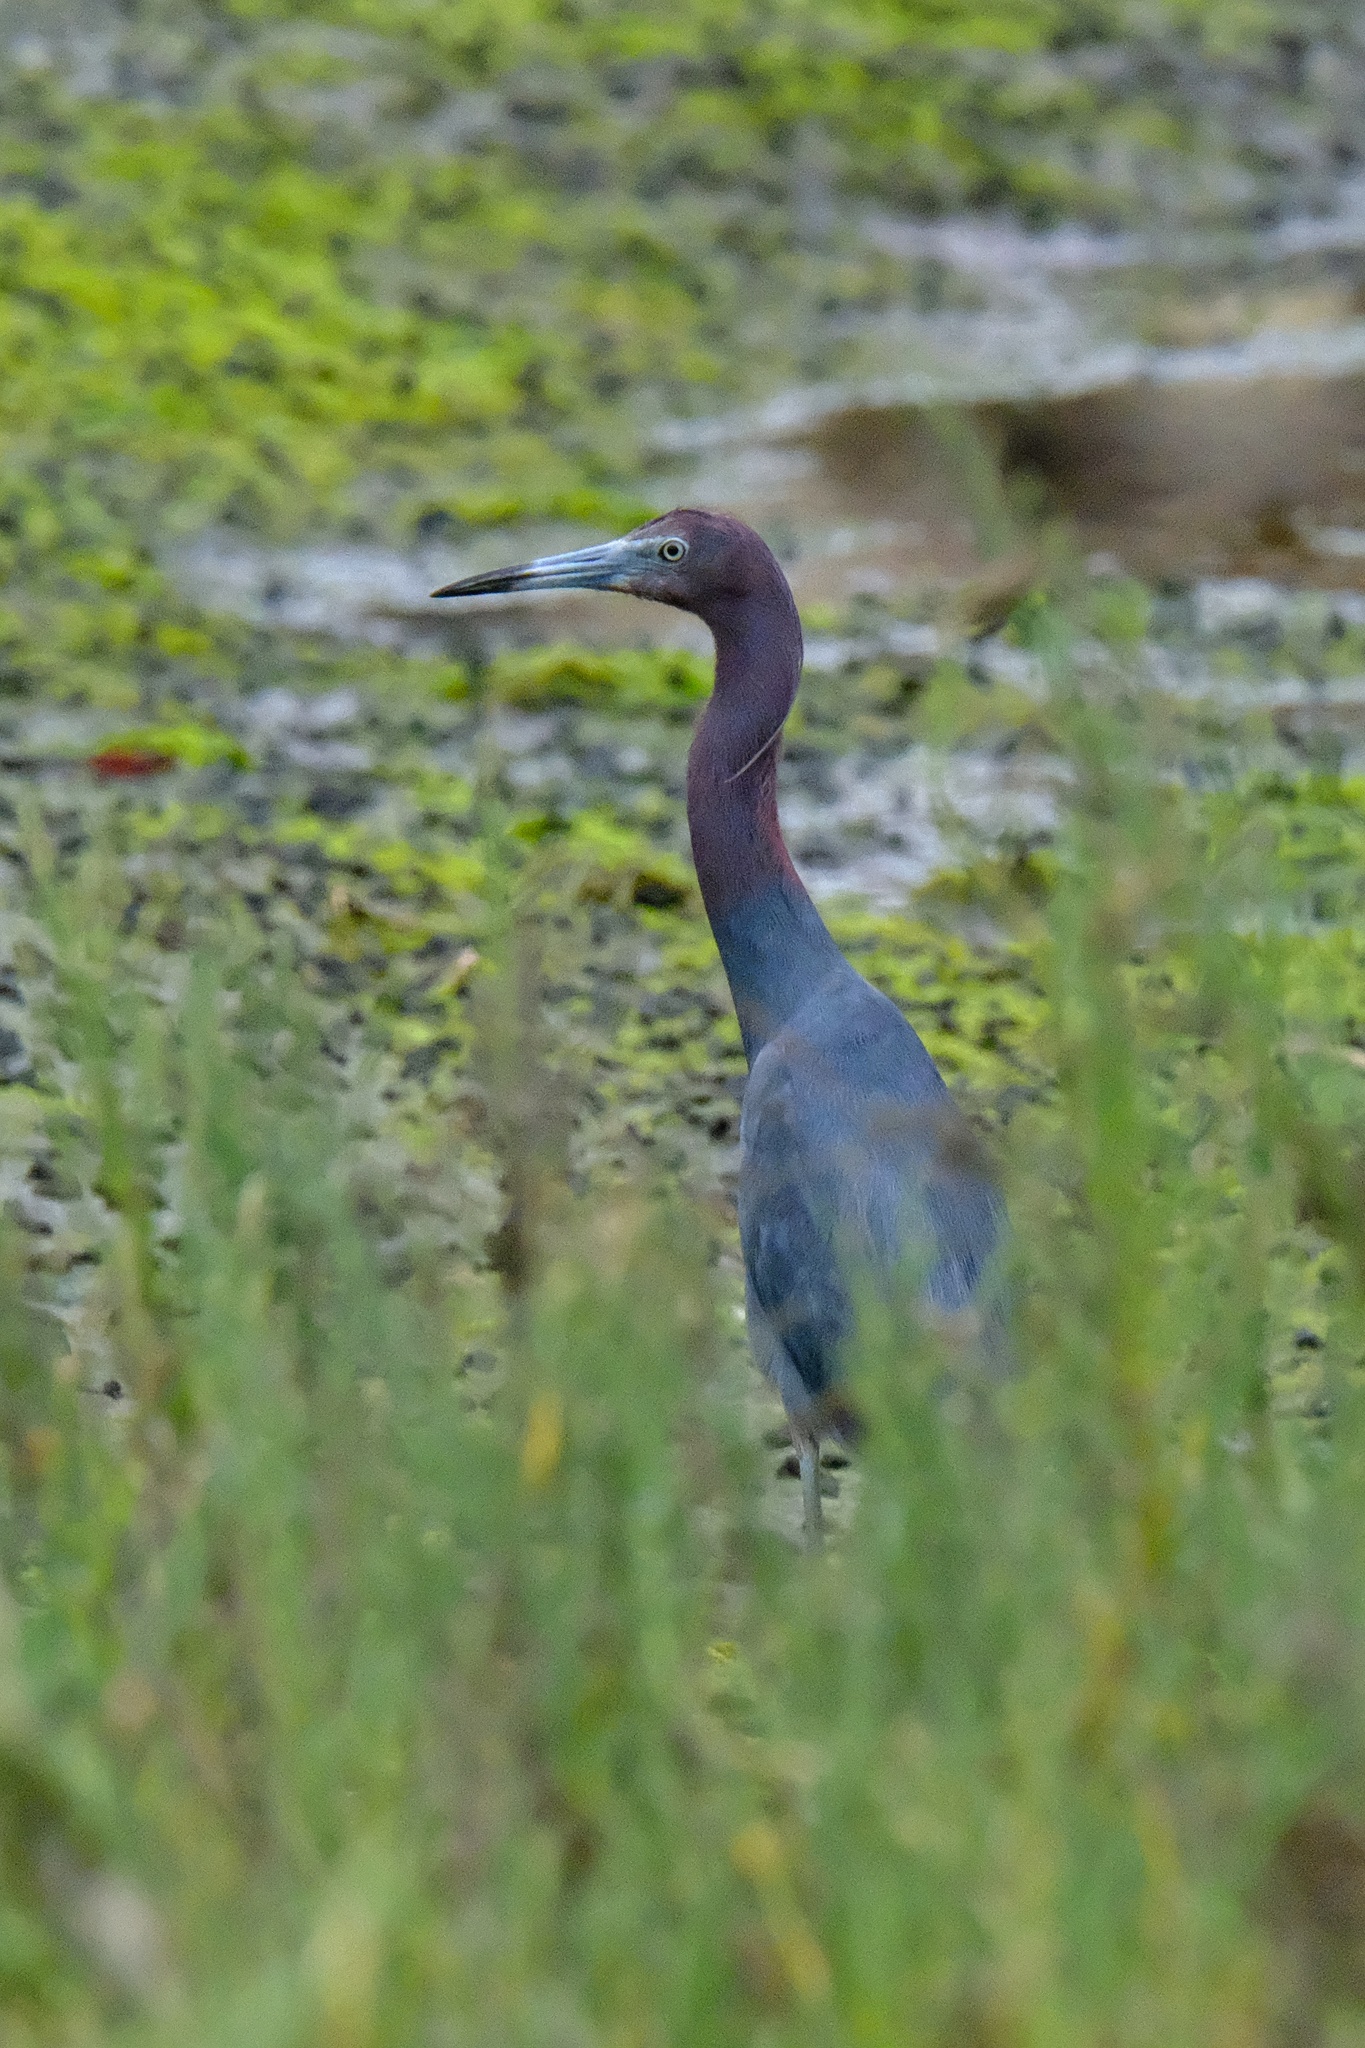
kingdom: Animalia
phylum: Chordata
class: Aves
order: Pelecaniformes
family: Ardeidae
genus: Egretta
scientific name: Egretta caerulea
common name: Little blue heron
